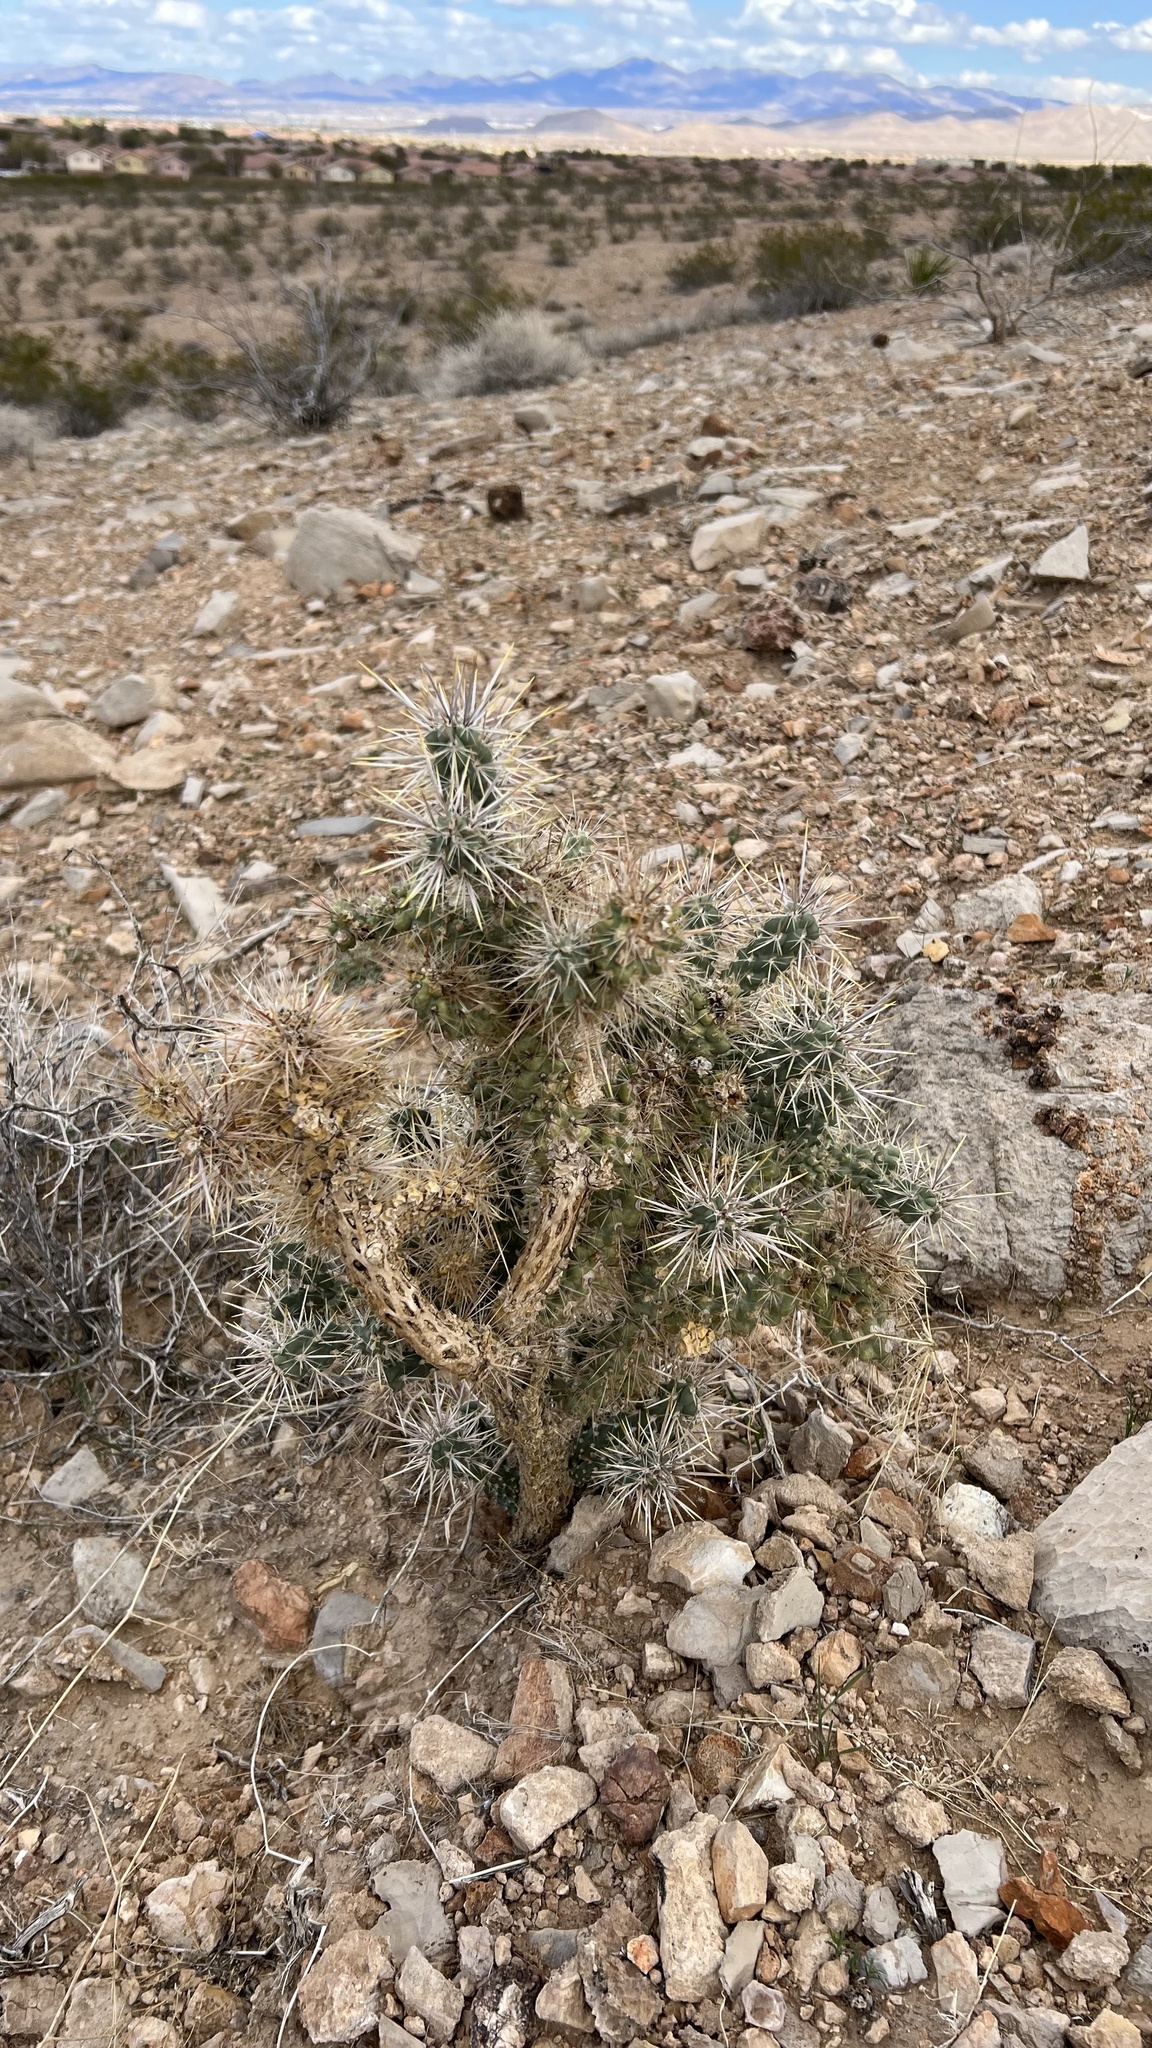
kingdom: Plantae
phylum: Tracheophyta
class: Magnoliopsida
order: Caryophyllales
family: Cactaceae
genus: Cylindropuntia
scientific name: Cylindropuntia echinocarpa
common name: Ground cholla
